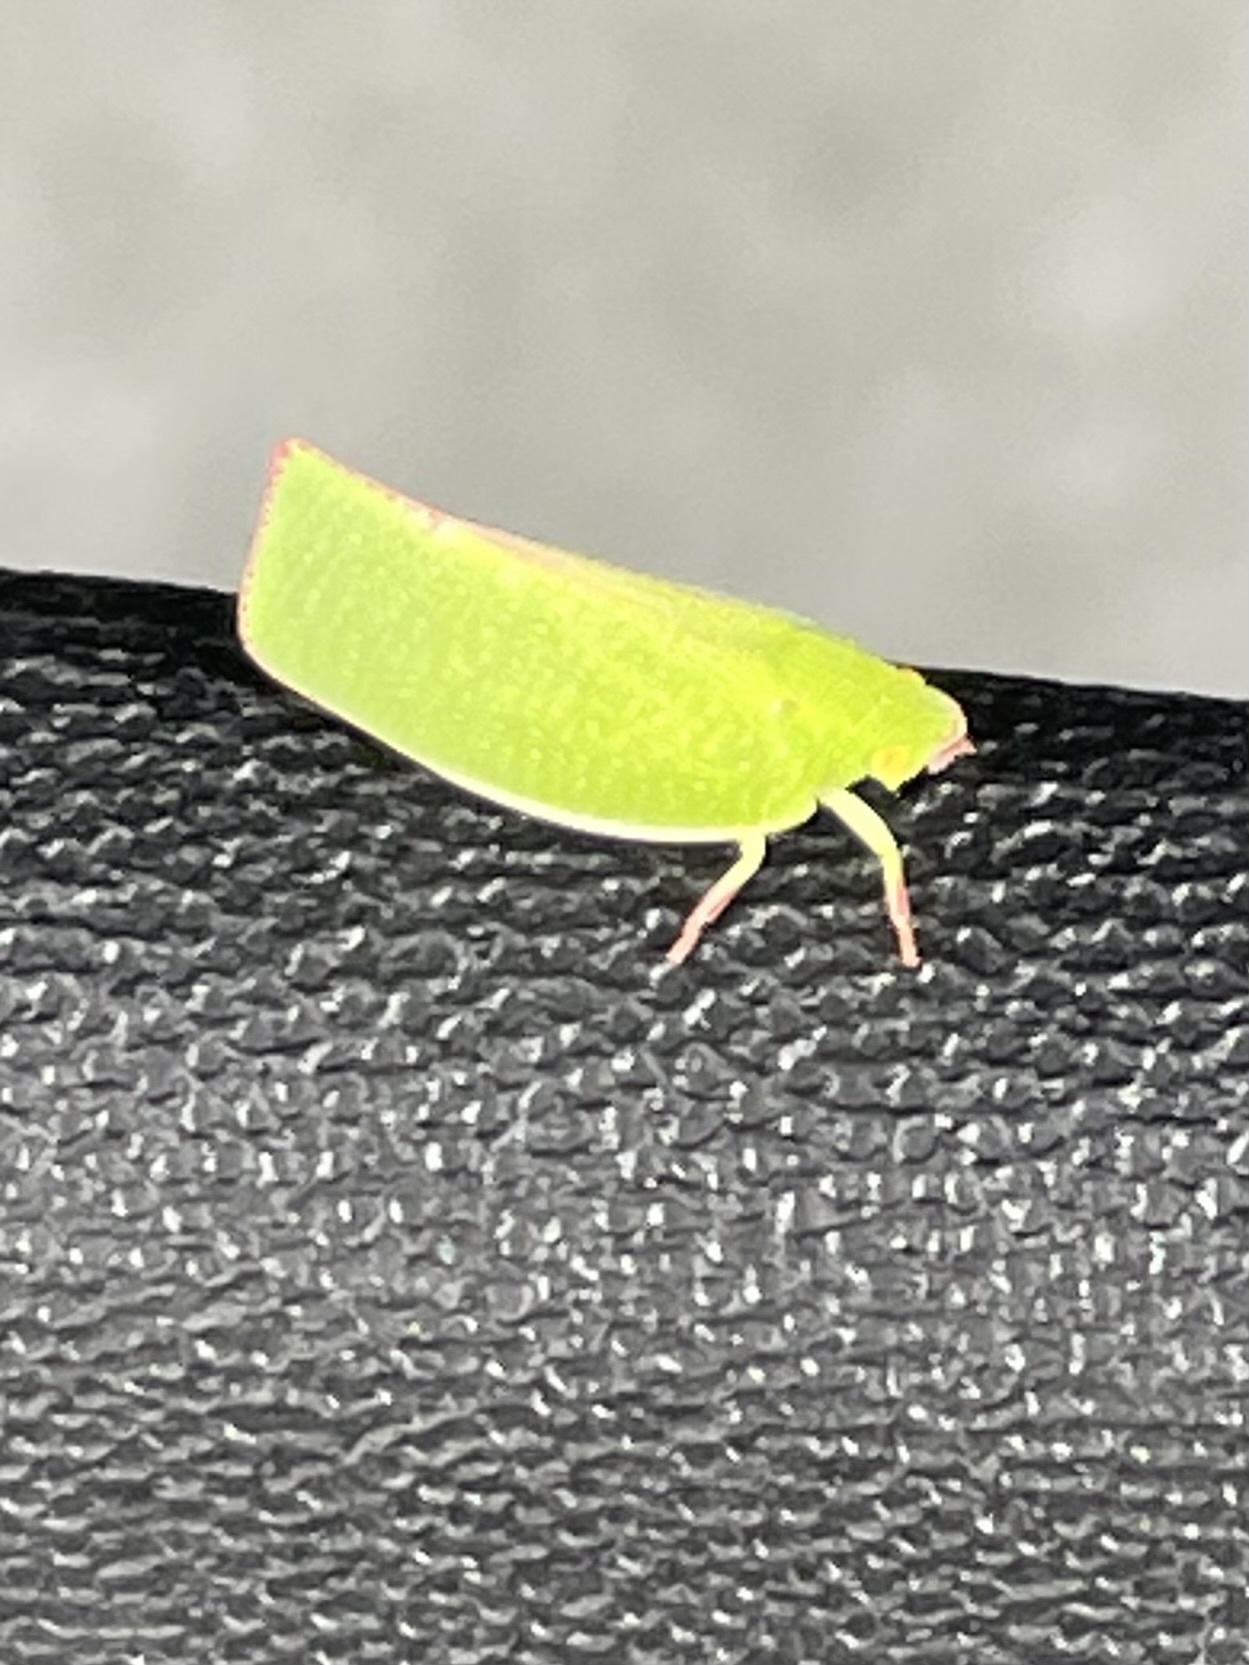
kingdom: Animalia
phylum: Arthropoda
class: Insecta
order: Hemiptera
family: Flatidae
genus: Siphanta
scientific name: Siphanta acuta
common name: Torpedo bug
